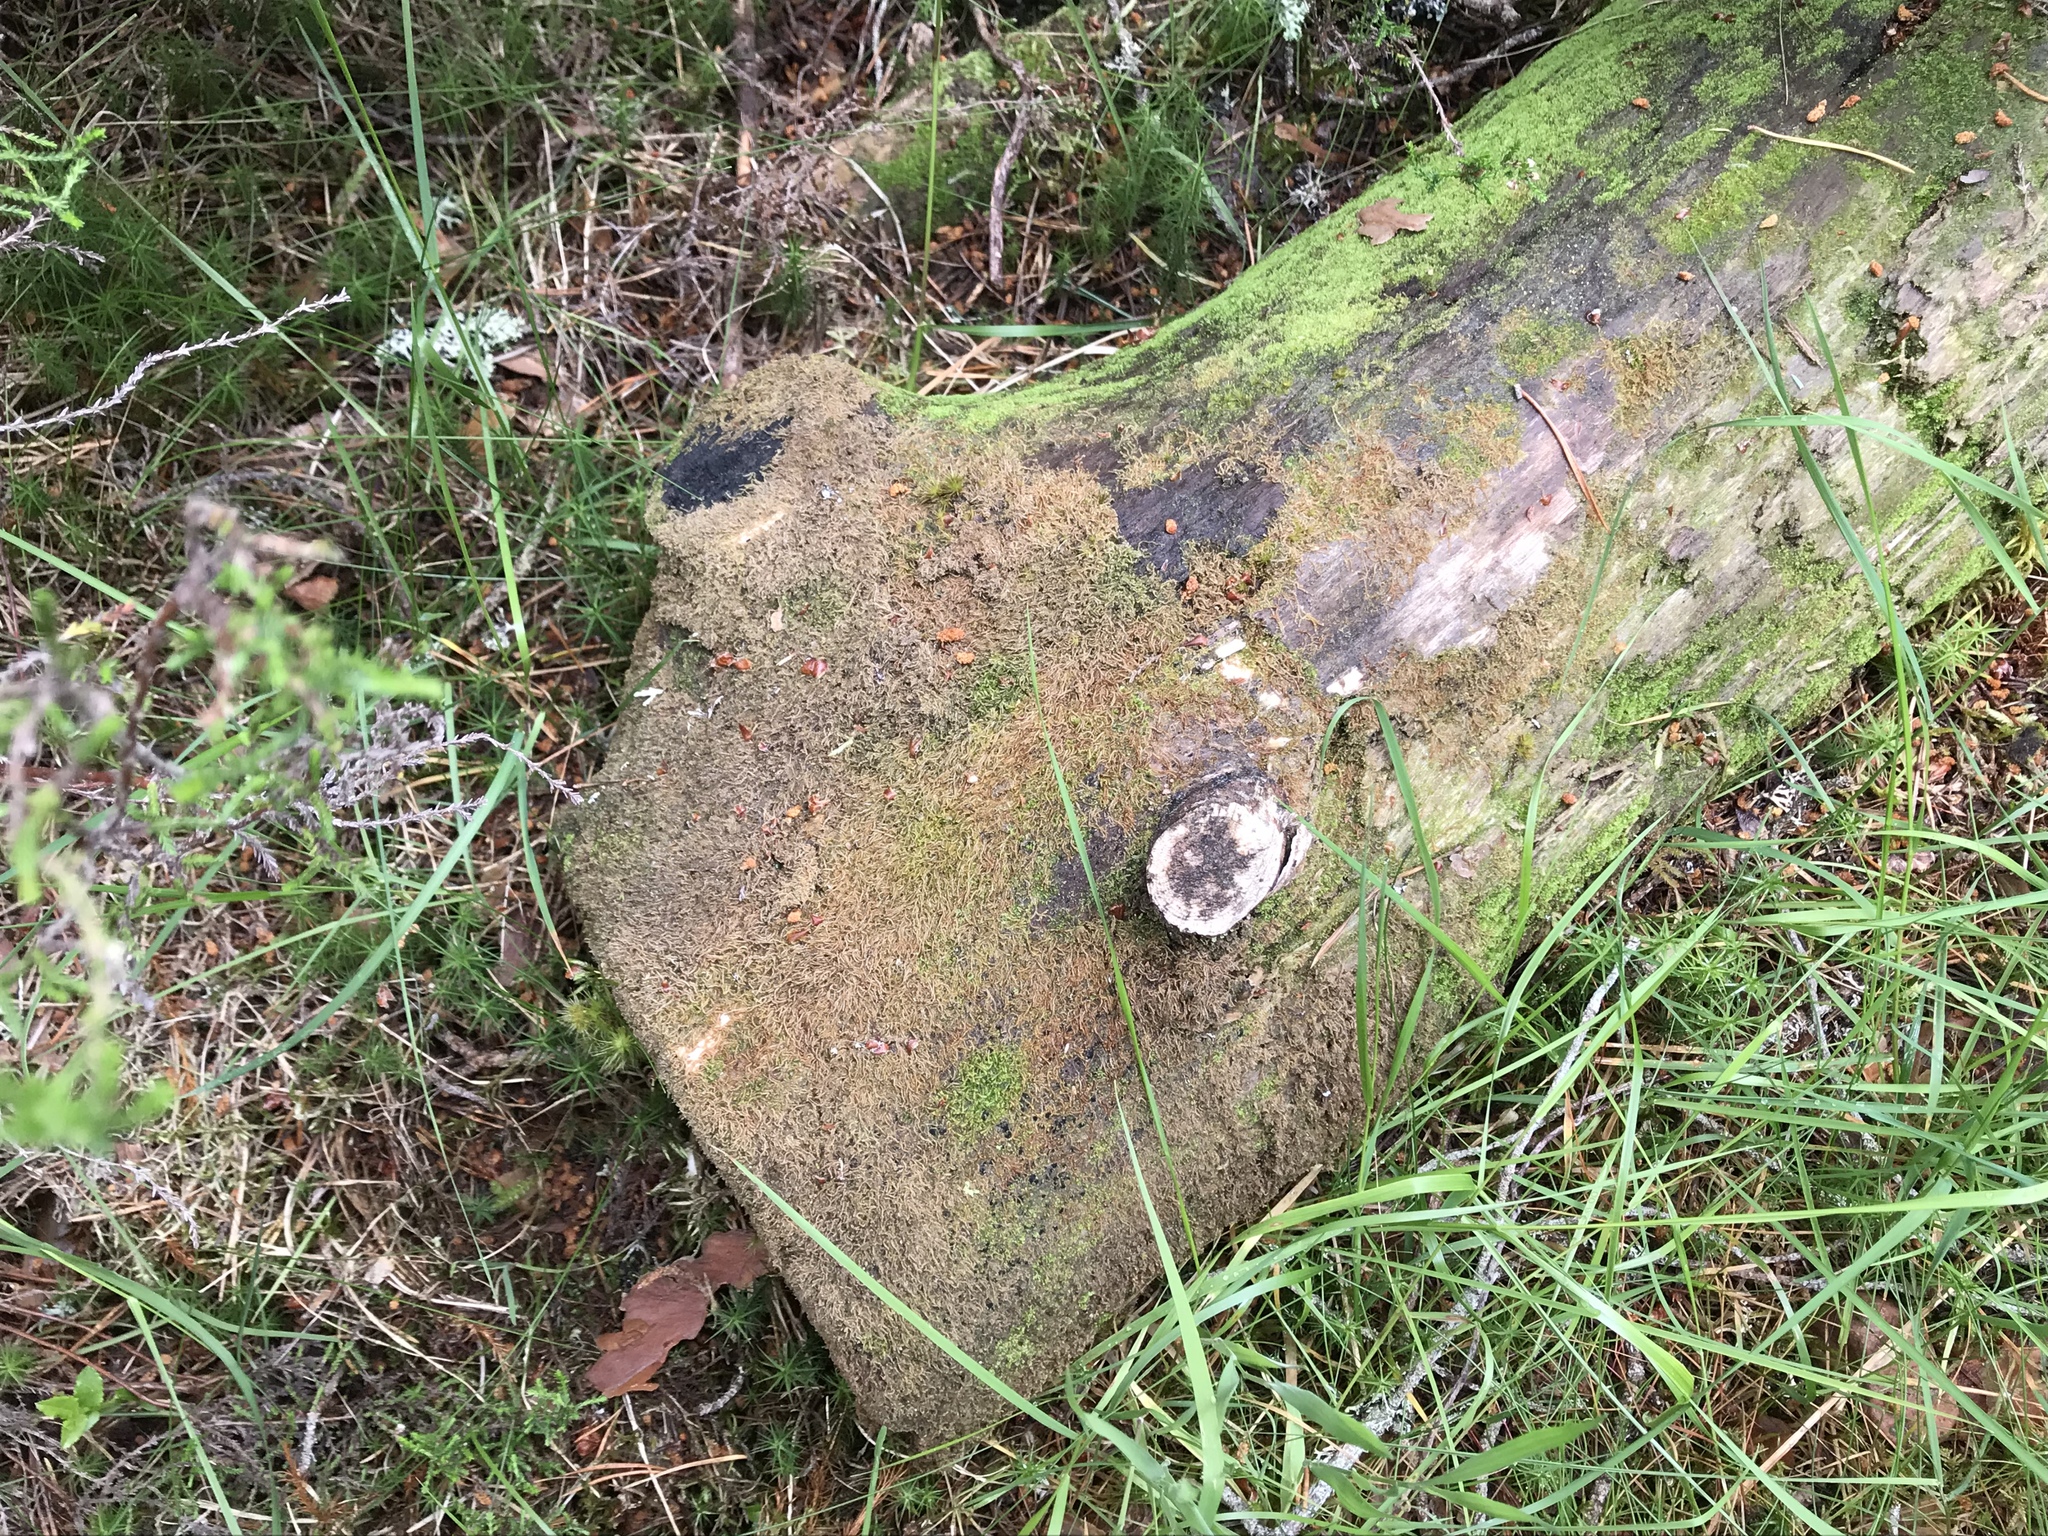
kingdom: Plantae
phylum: Marchantiophyta
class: Jungermanniopsida
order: Jungermanniales
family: Cephaloziaceae
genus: Nowellia
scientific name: Nowellia curvifolia
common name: Wood rustwort
